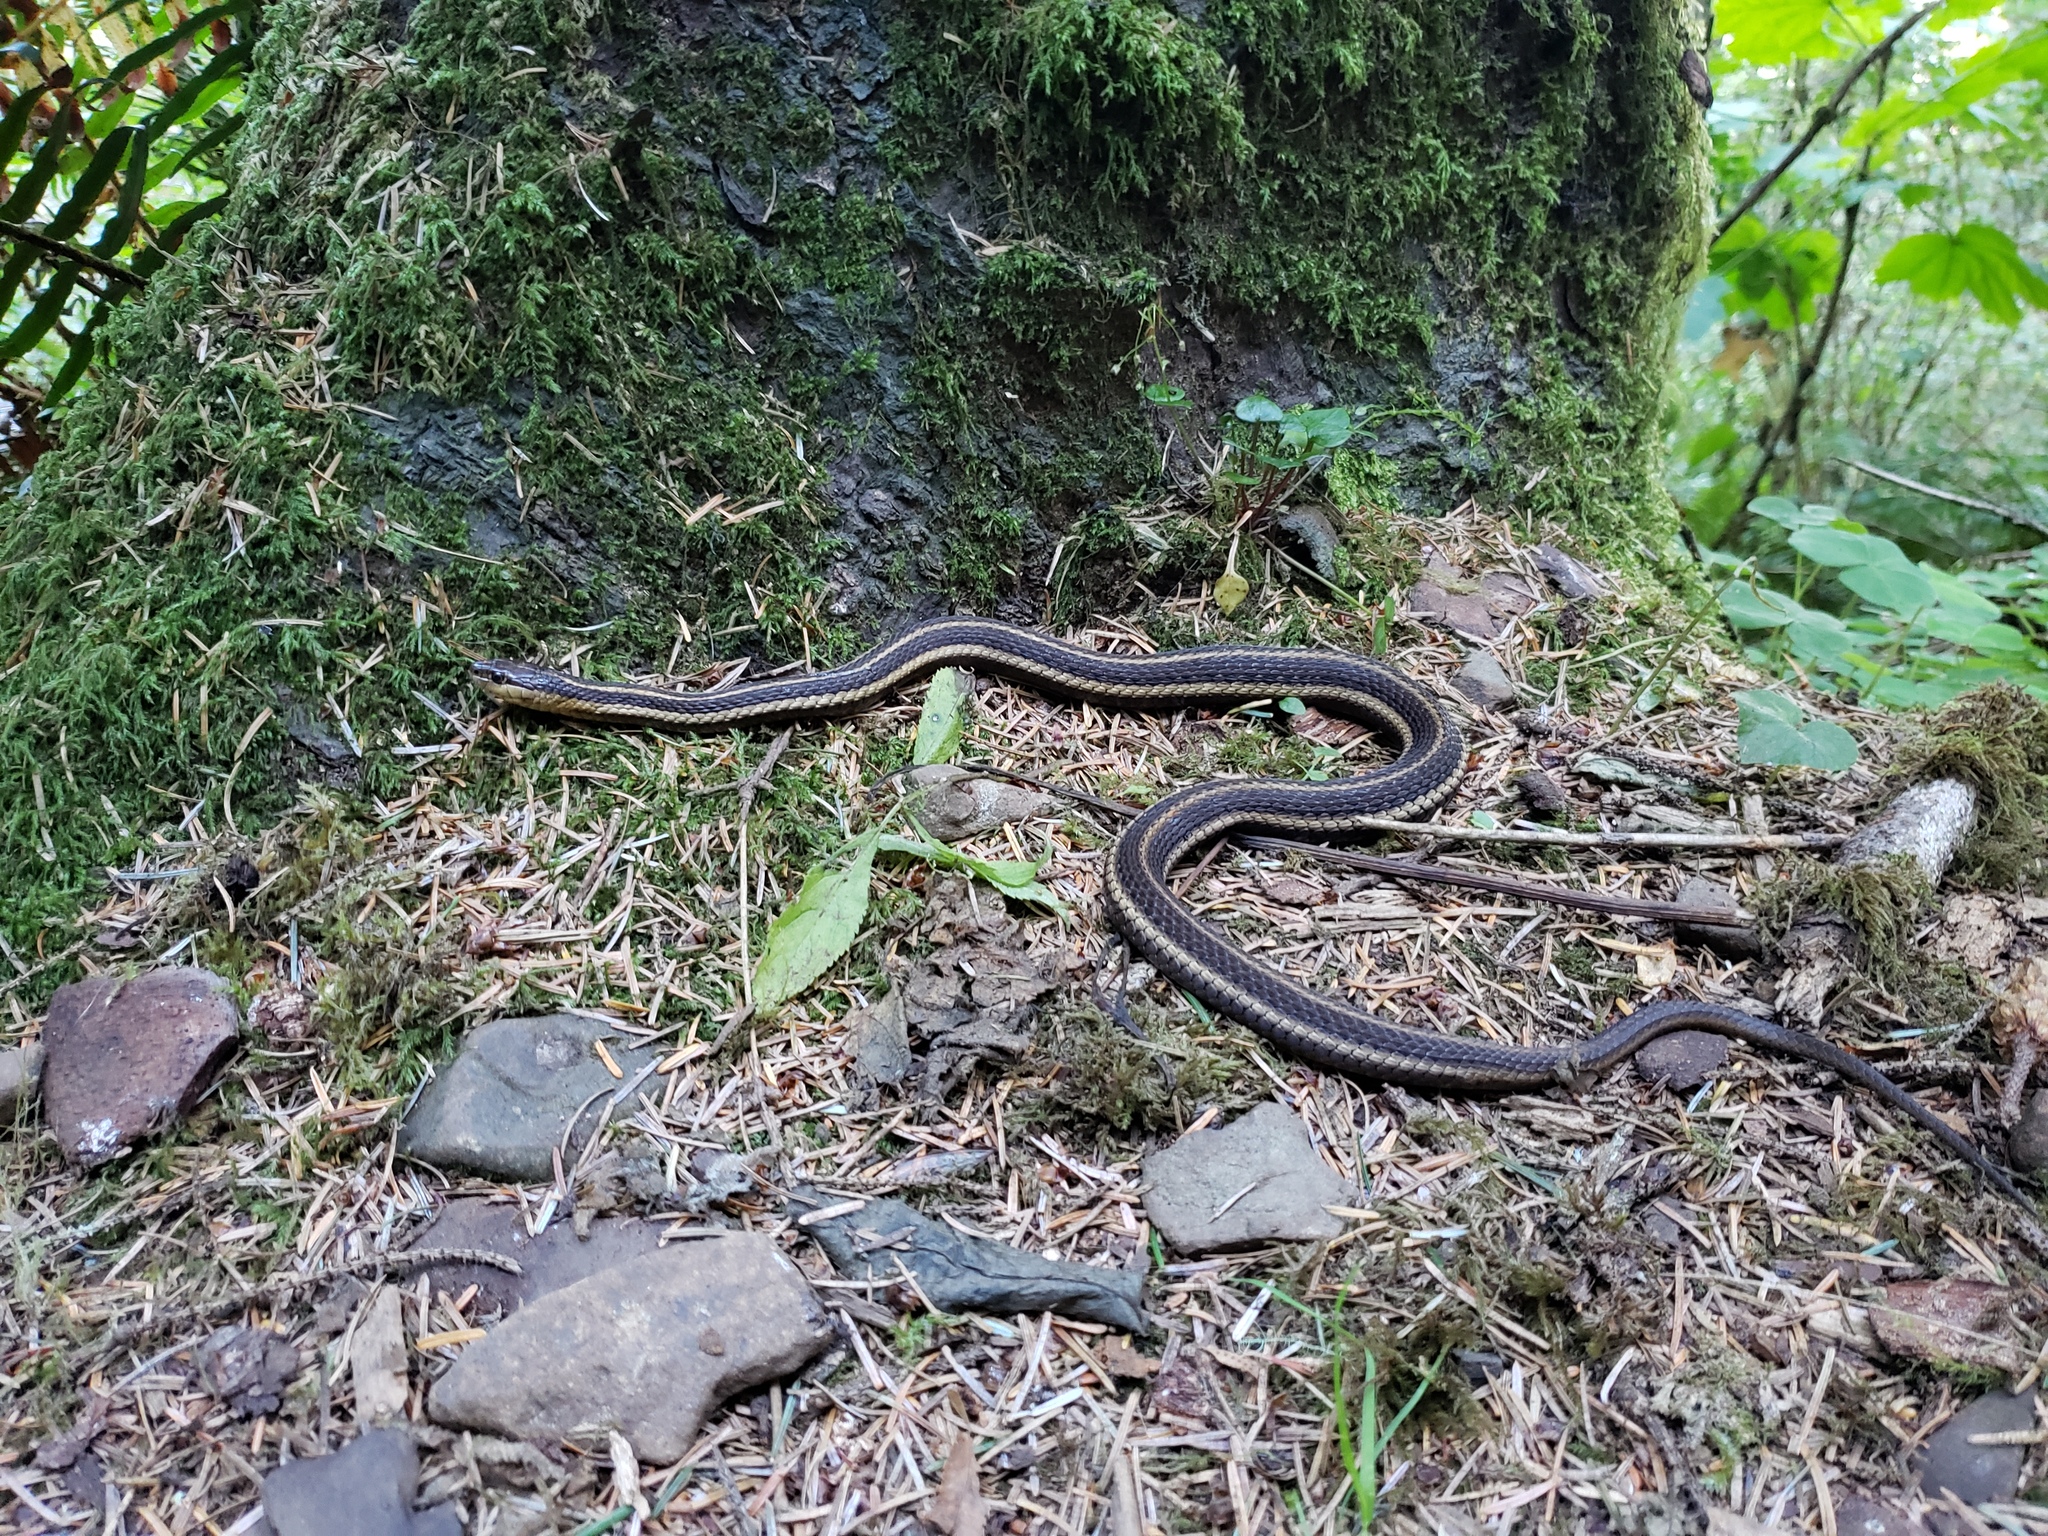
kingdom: Animalia
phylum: Chordata
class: Squamata
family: Colubridae
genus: Thamnophis
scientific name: Thamnophis ordinoides
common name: Northwestern garter snake
